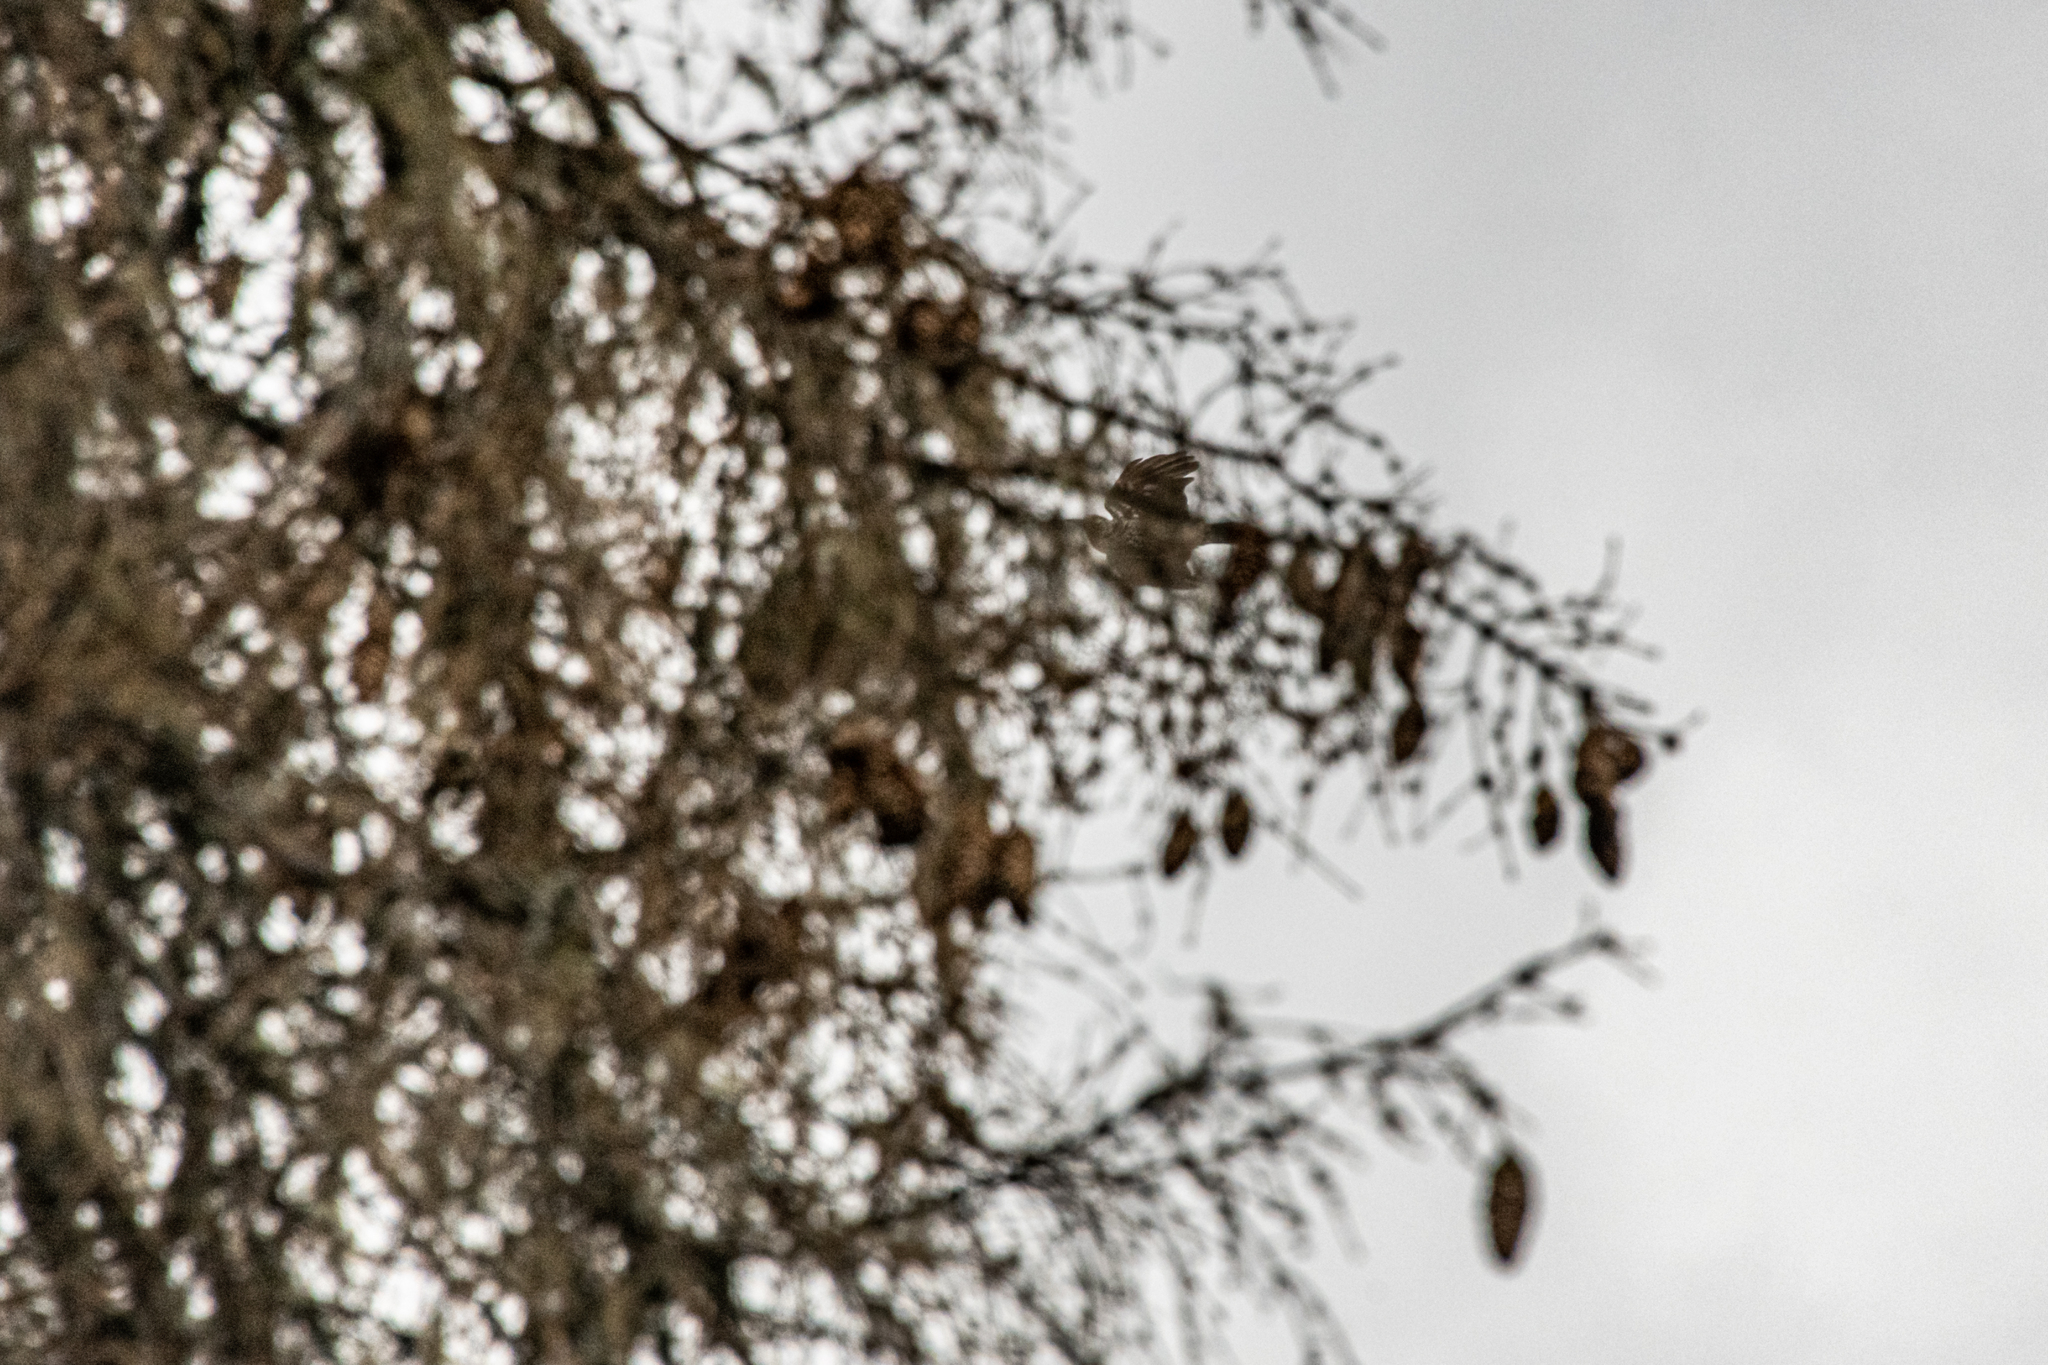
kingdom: Animalia
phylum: Chordata
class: Aves
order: Passeriformes
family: Corvidae
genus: Nucifraga
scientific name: Nucifraga caryocatactes
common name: Spotted nutcracker
